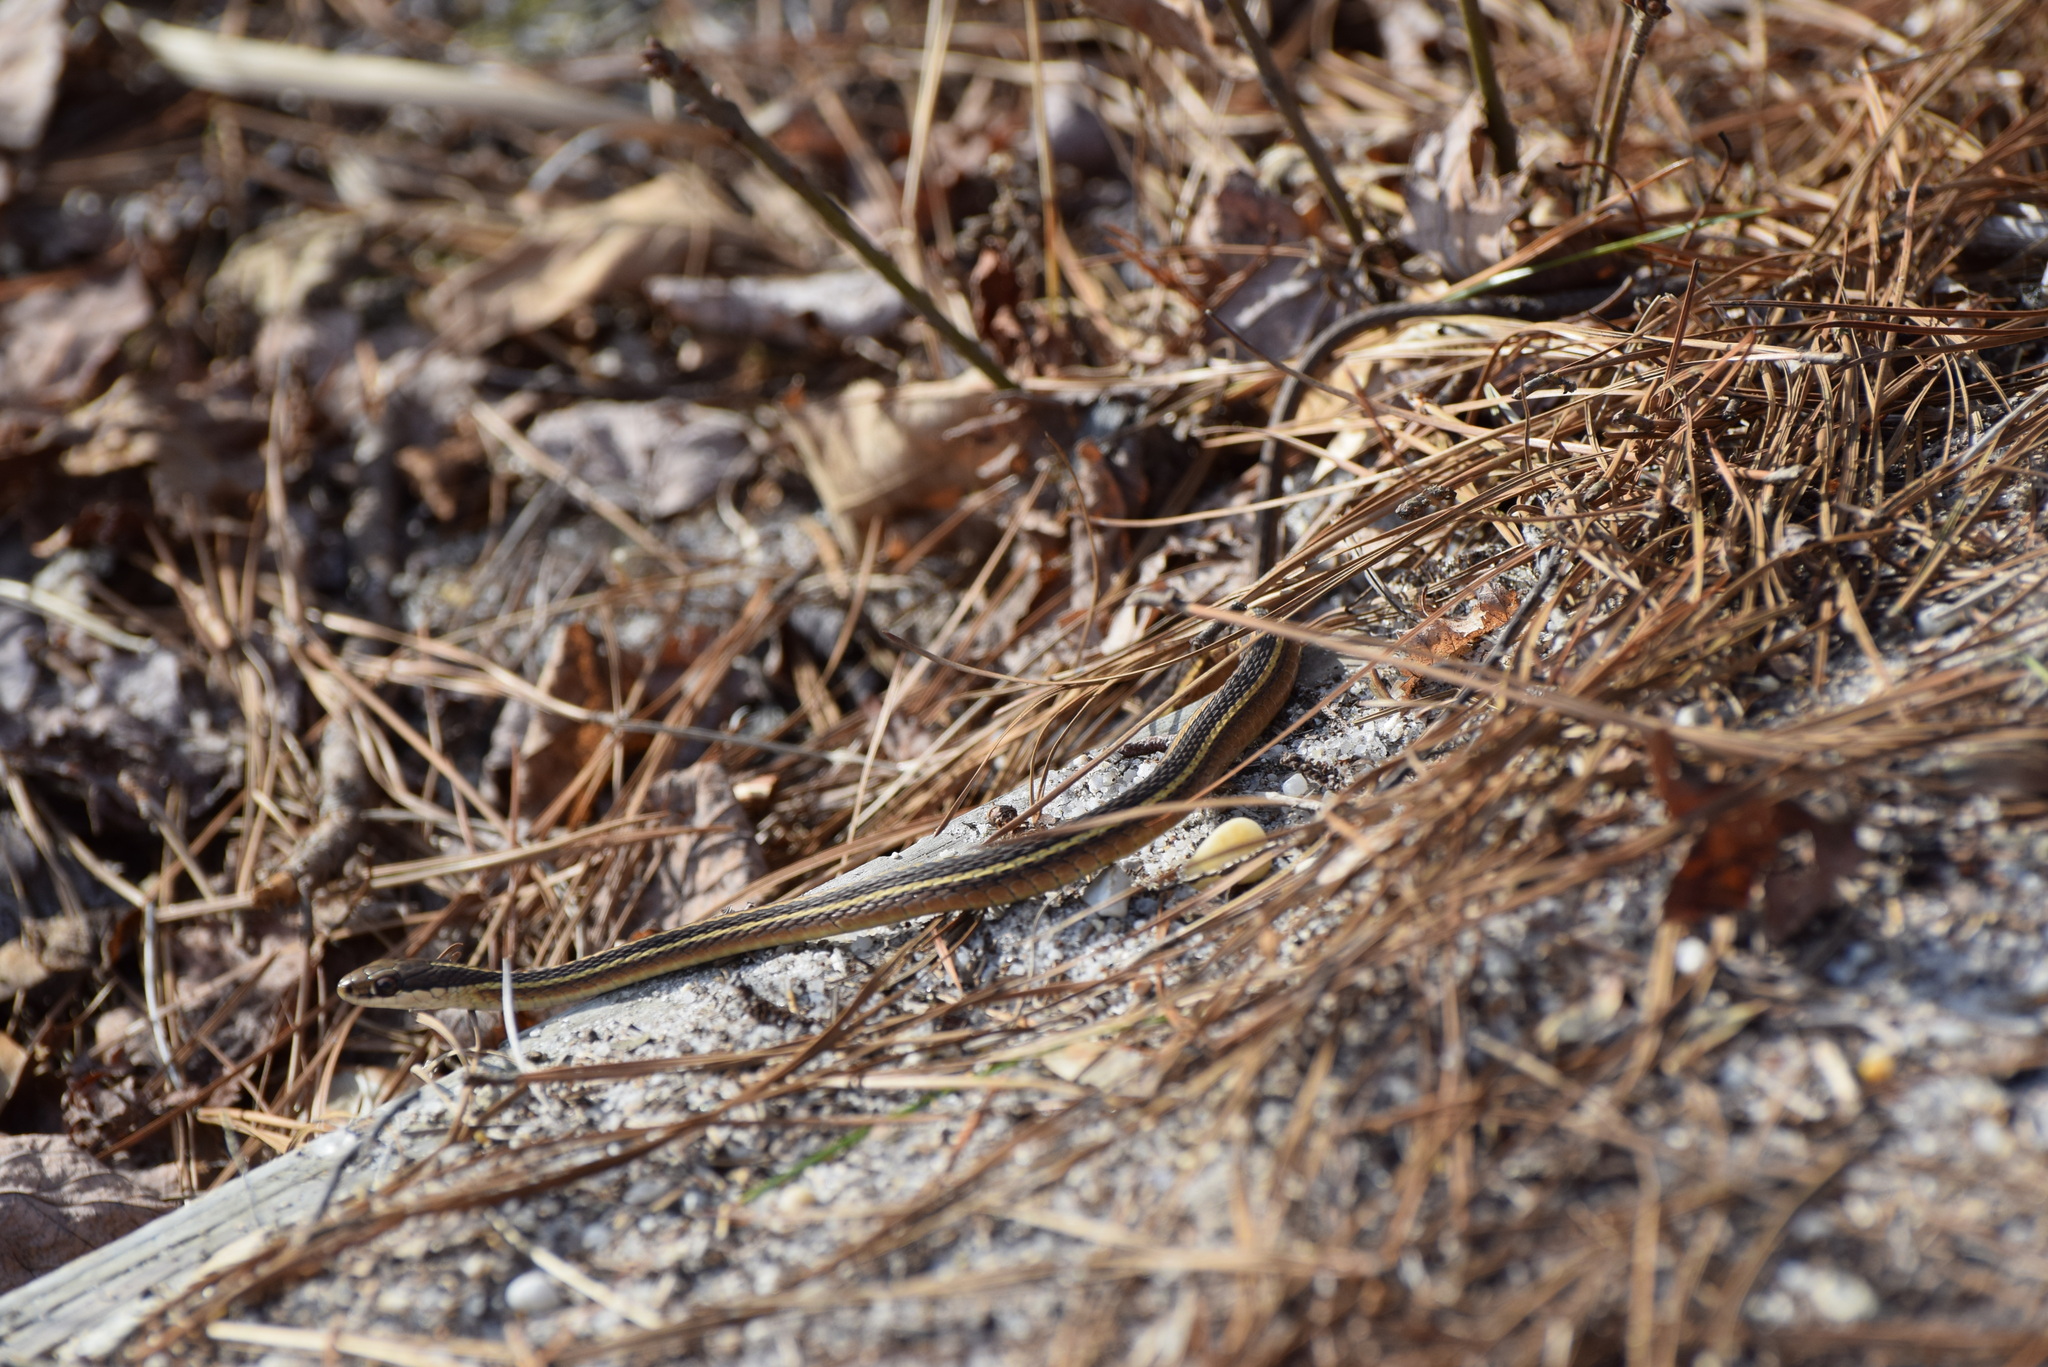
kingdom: Animalia
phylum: Chordata
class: Squamata
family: Colubridae
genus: Thamnophis
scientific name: Thamnophis saurita
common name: Eastern ribbonsnake
